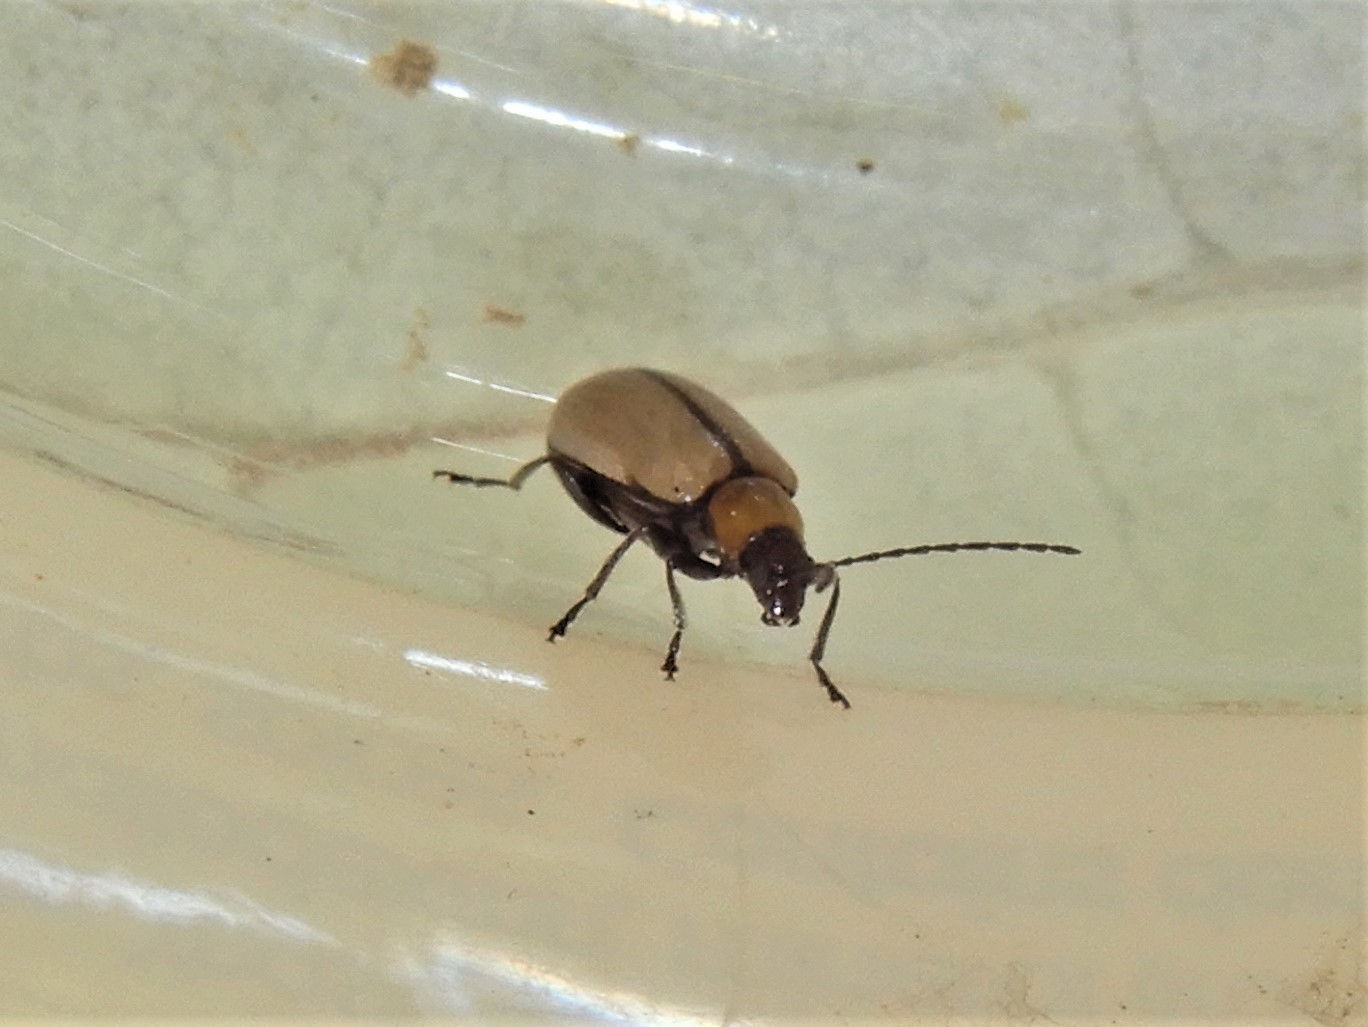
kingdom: Animalia
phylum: Arthropoda
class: Insecta
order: Coleoptera
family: Chrysomelidae
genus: Adoxia
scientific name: Adoxia
